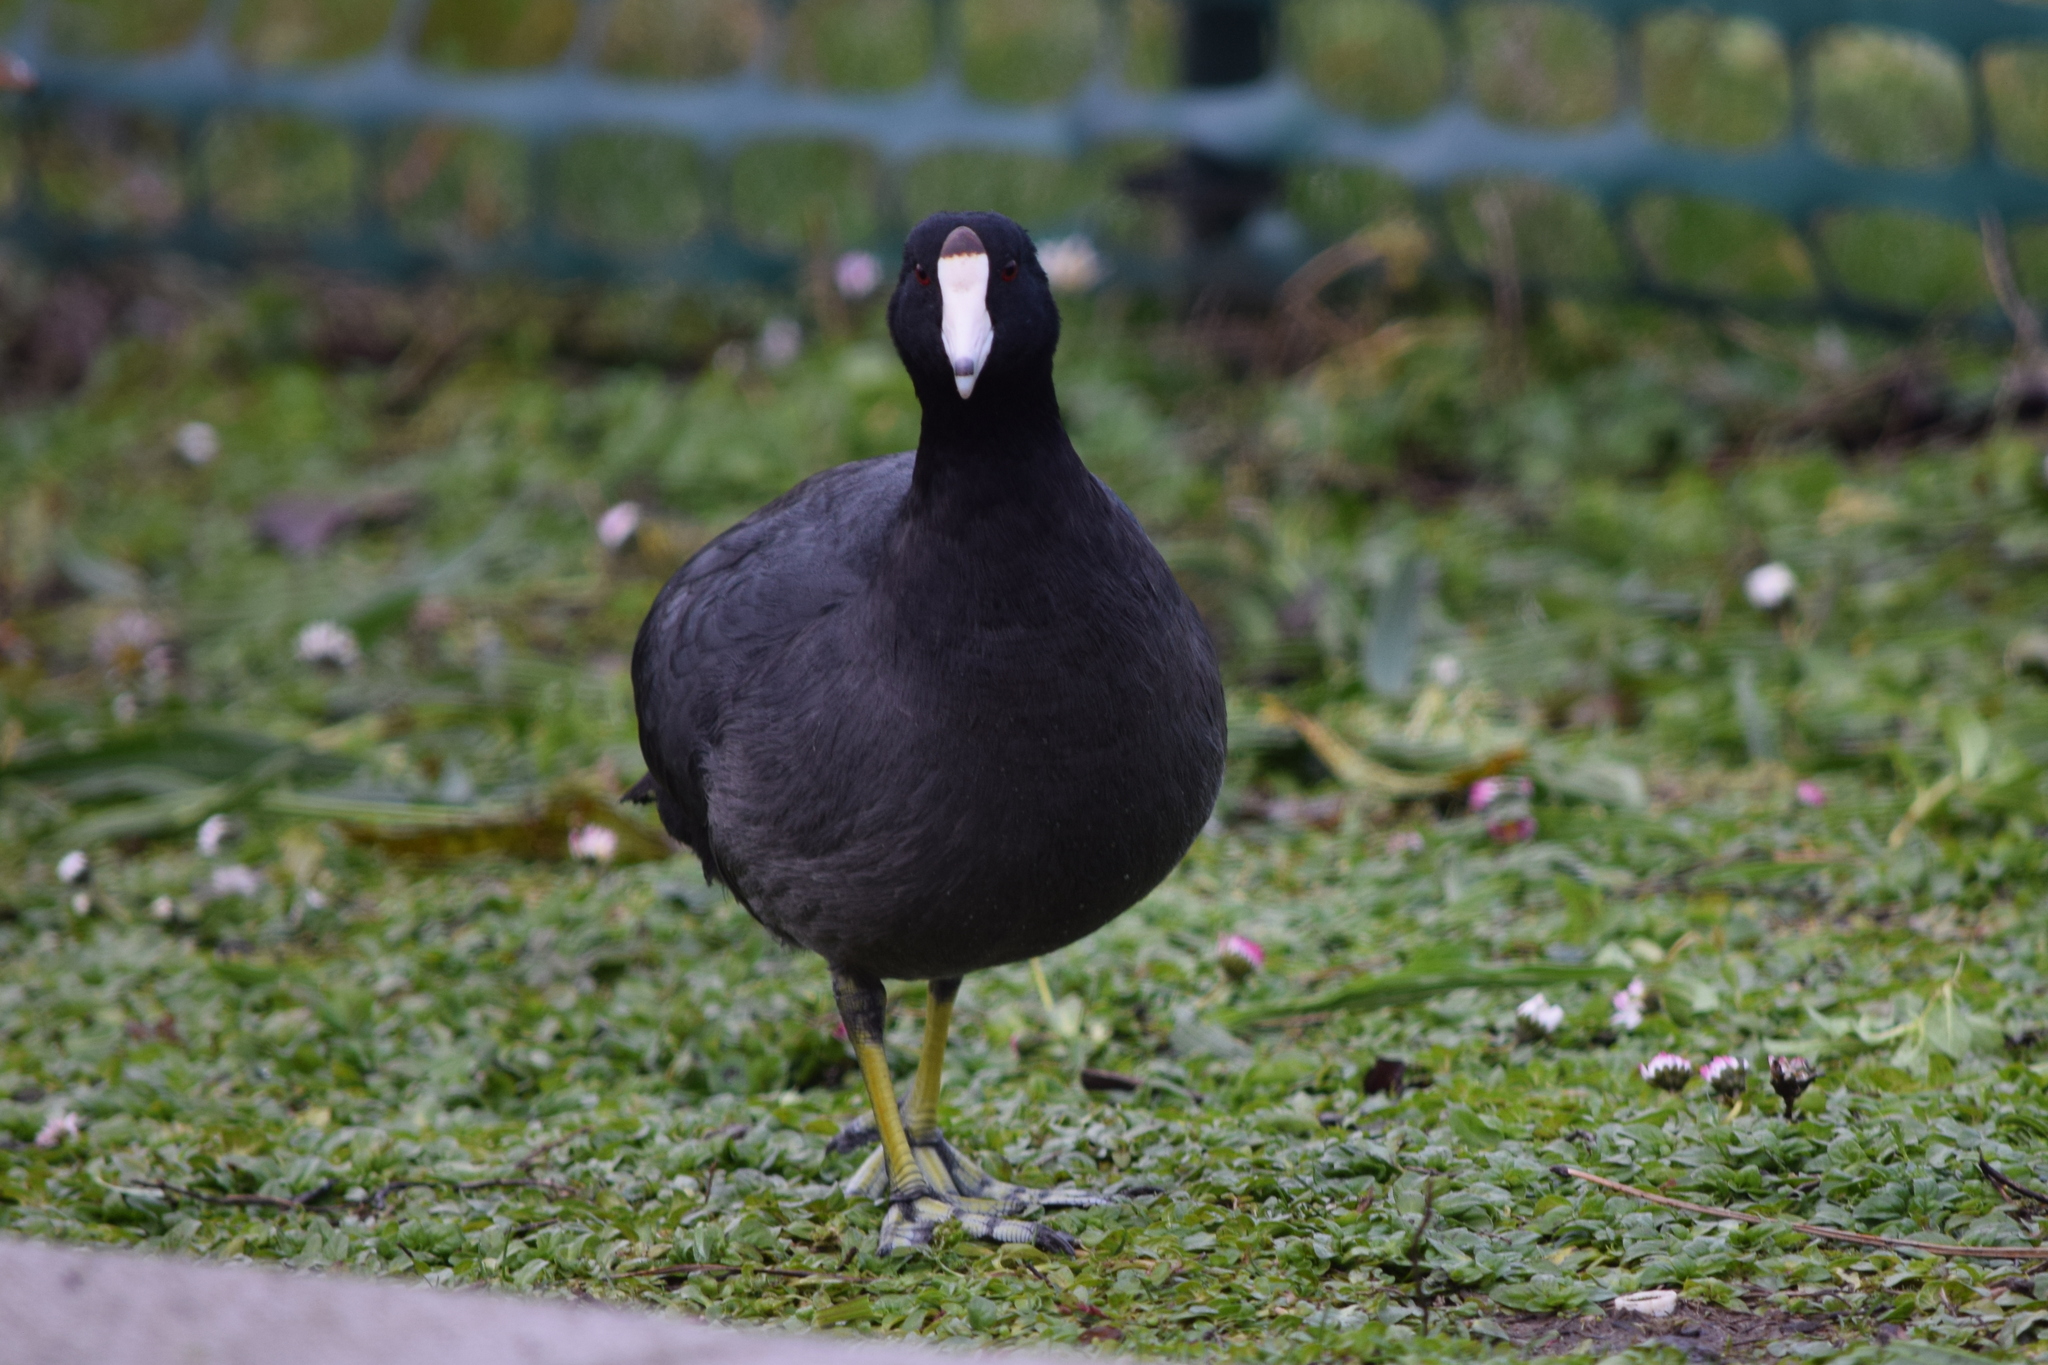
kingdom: Animalia
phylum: Chordata
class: Aves
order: Gruiformes
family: Rallidae
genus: Fulica
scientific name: Fulica americana
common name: American coot
